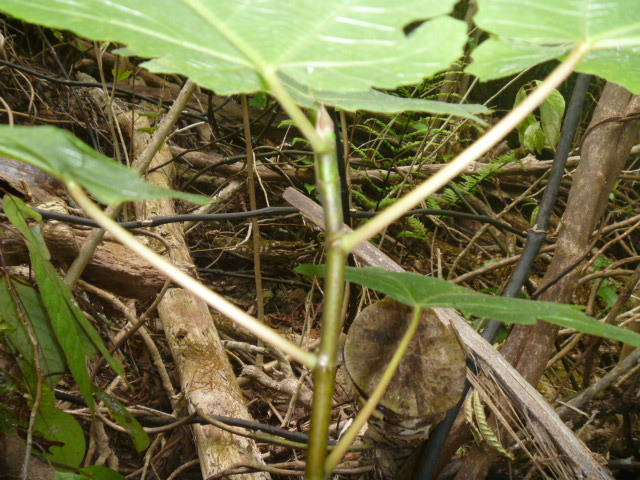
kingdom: Plantae
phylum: Tracheophyta
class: Magnoliopsida
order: Rosales
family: Moraceae
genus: Ficus
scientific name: Ficus carica
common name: Fig
